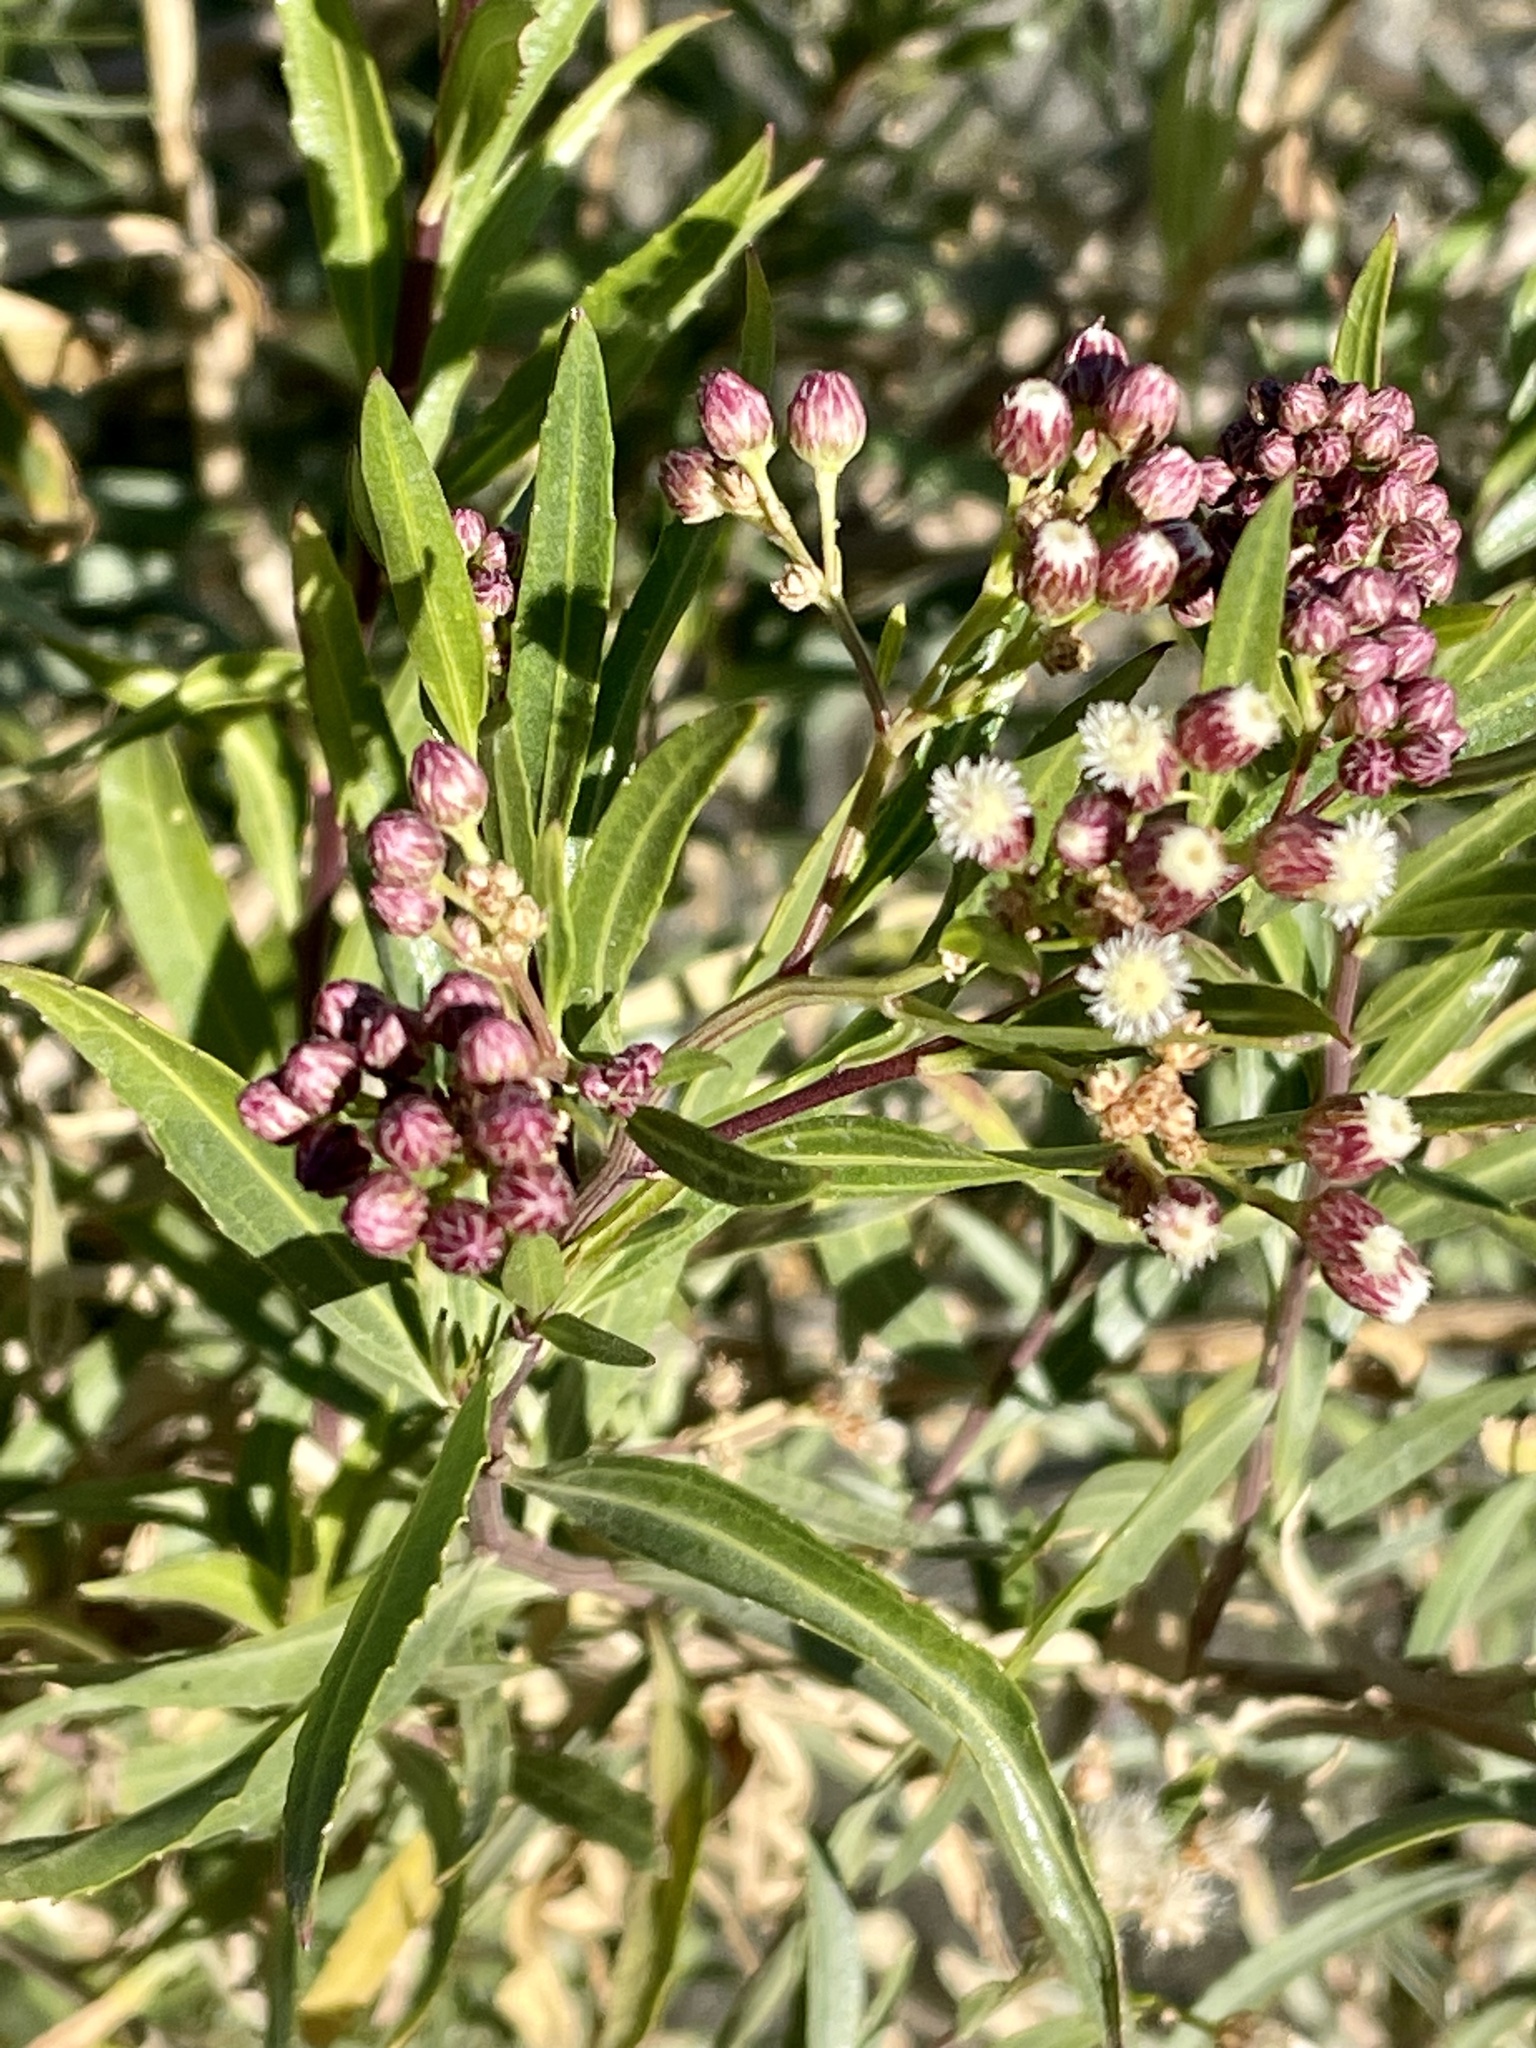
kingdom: Plantae
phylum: Tracheophyta
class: Magnoliopsida
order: Asterales
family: Asteraceae
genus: Baccharis
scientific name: Baccharis salicifolia
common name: Sticky baccharis
